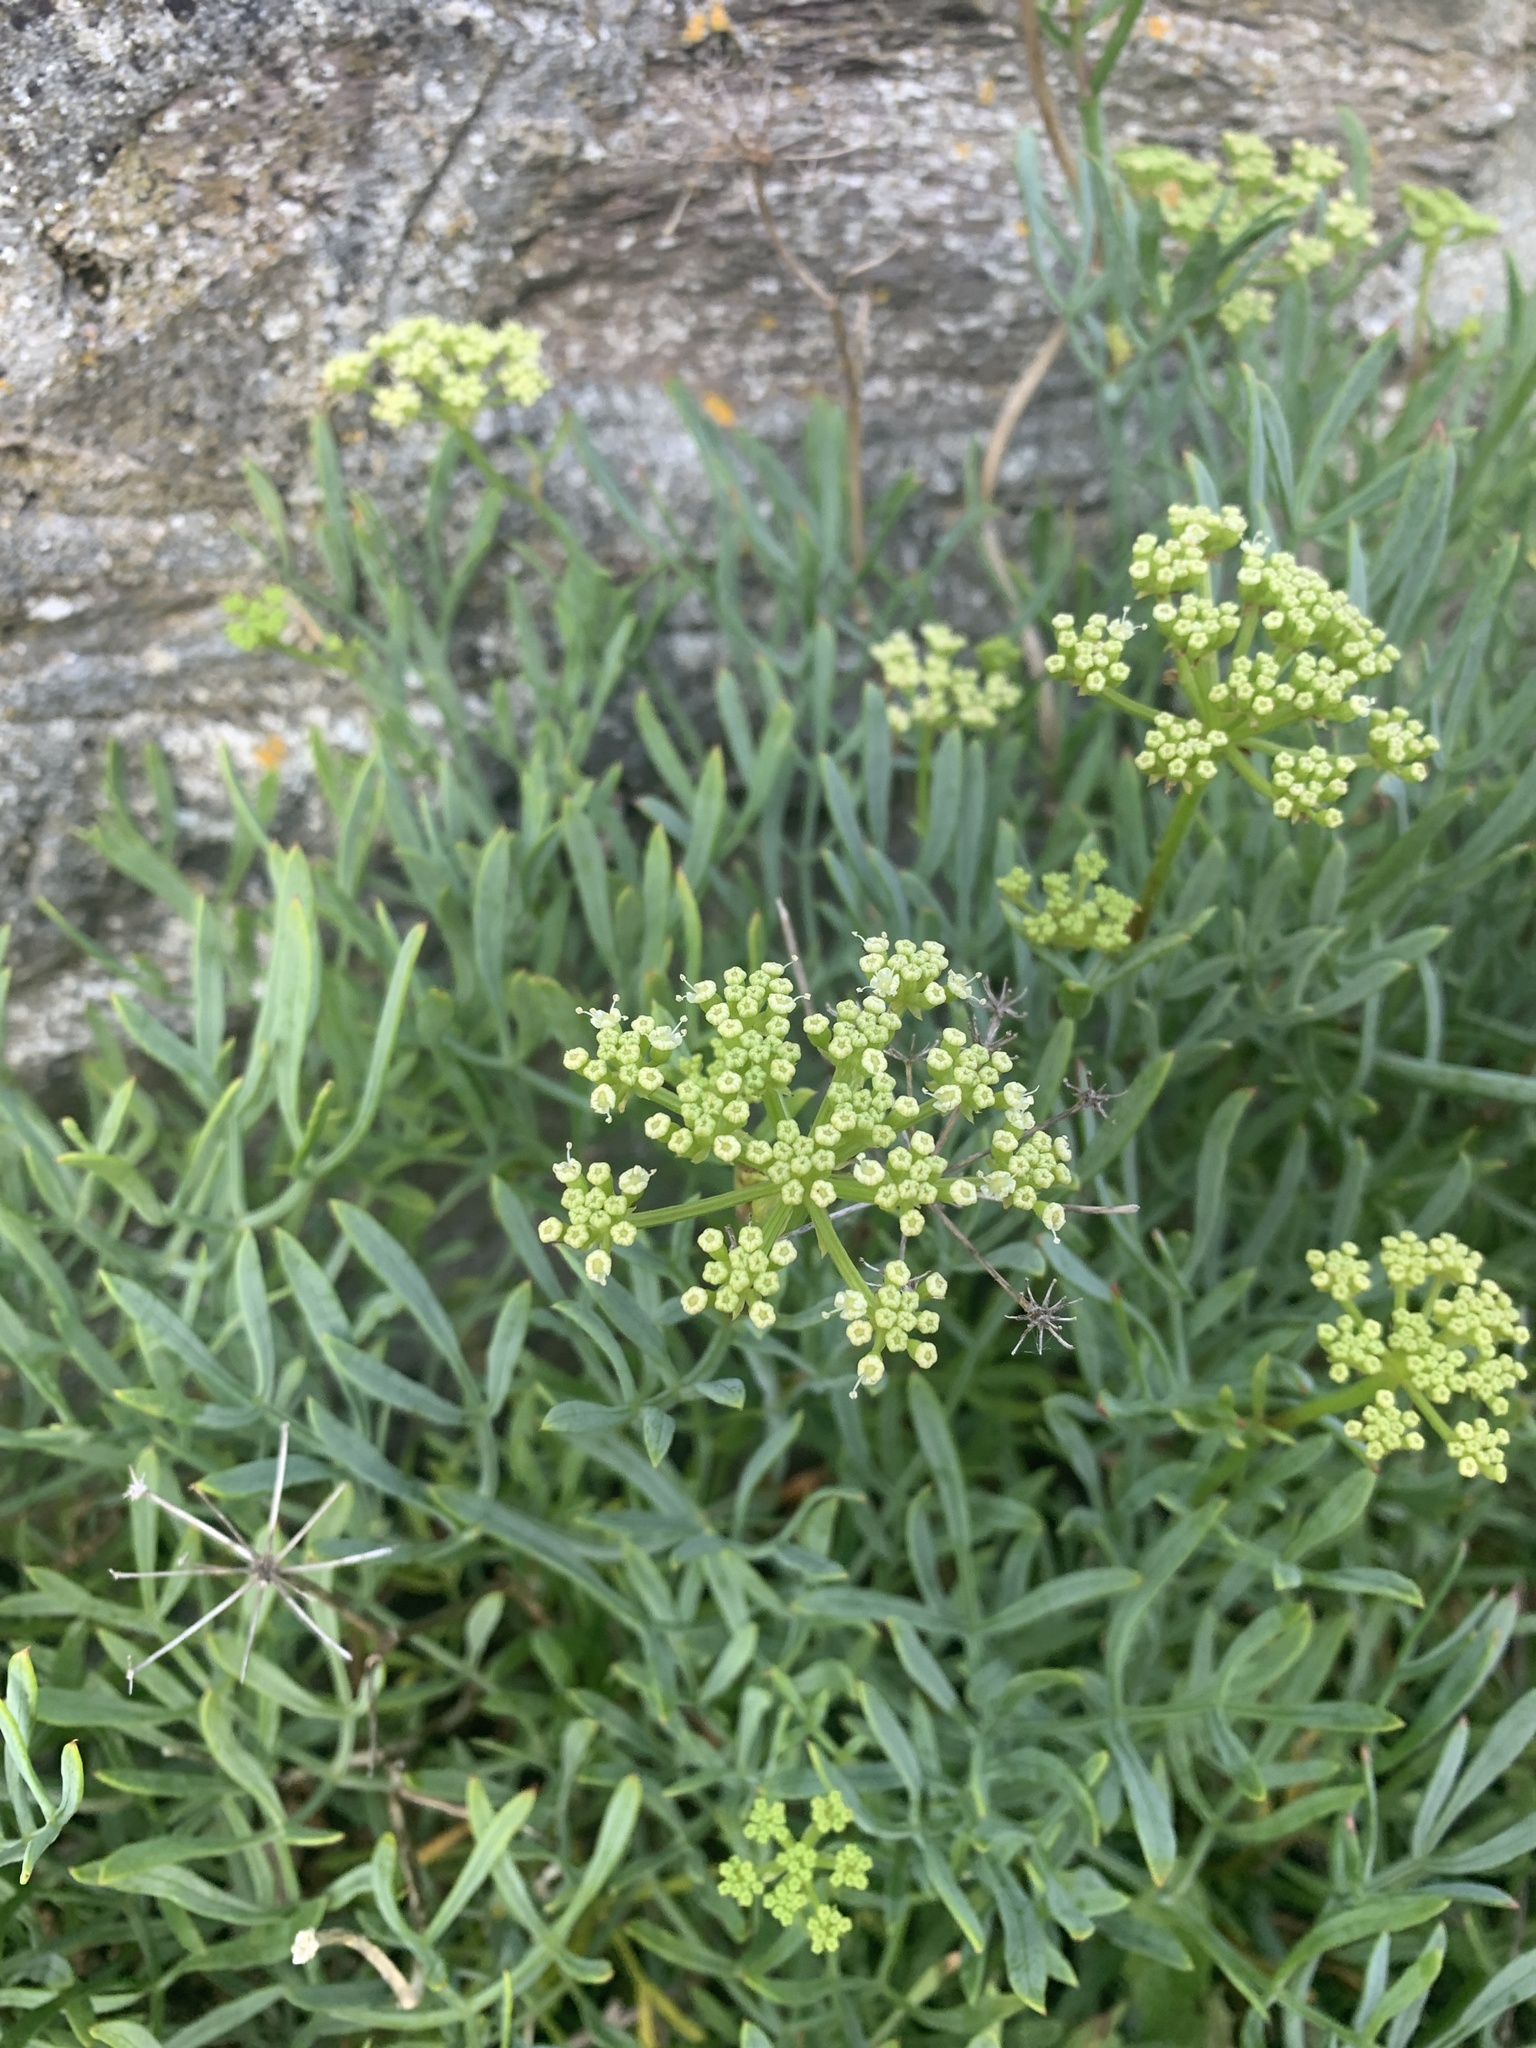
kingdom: Plantae
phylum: Tracheophyta
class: Magnoliopsida
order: Apiales
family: Apiaceae
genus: Crithmum
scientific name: Crithmum maritimum
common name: Rock samphire
